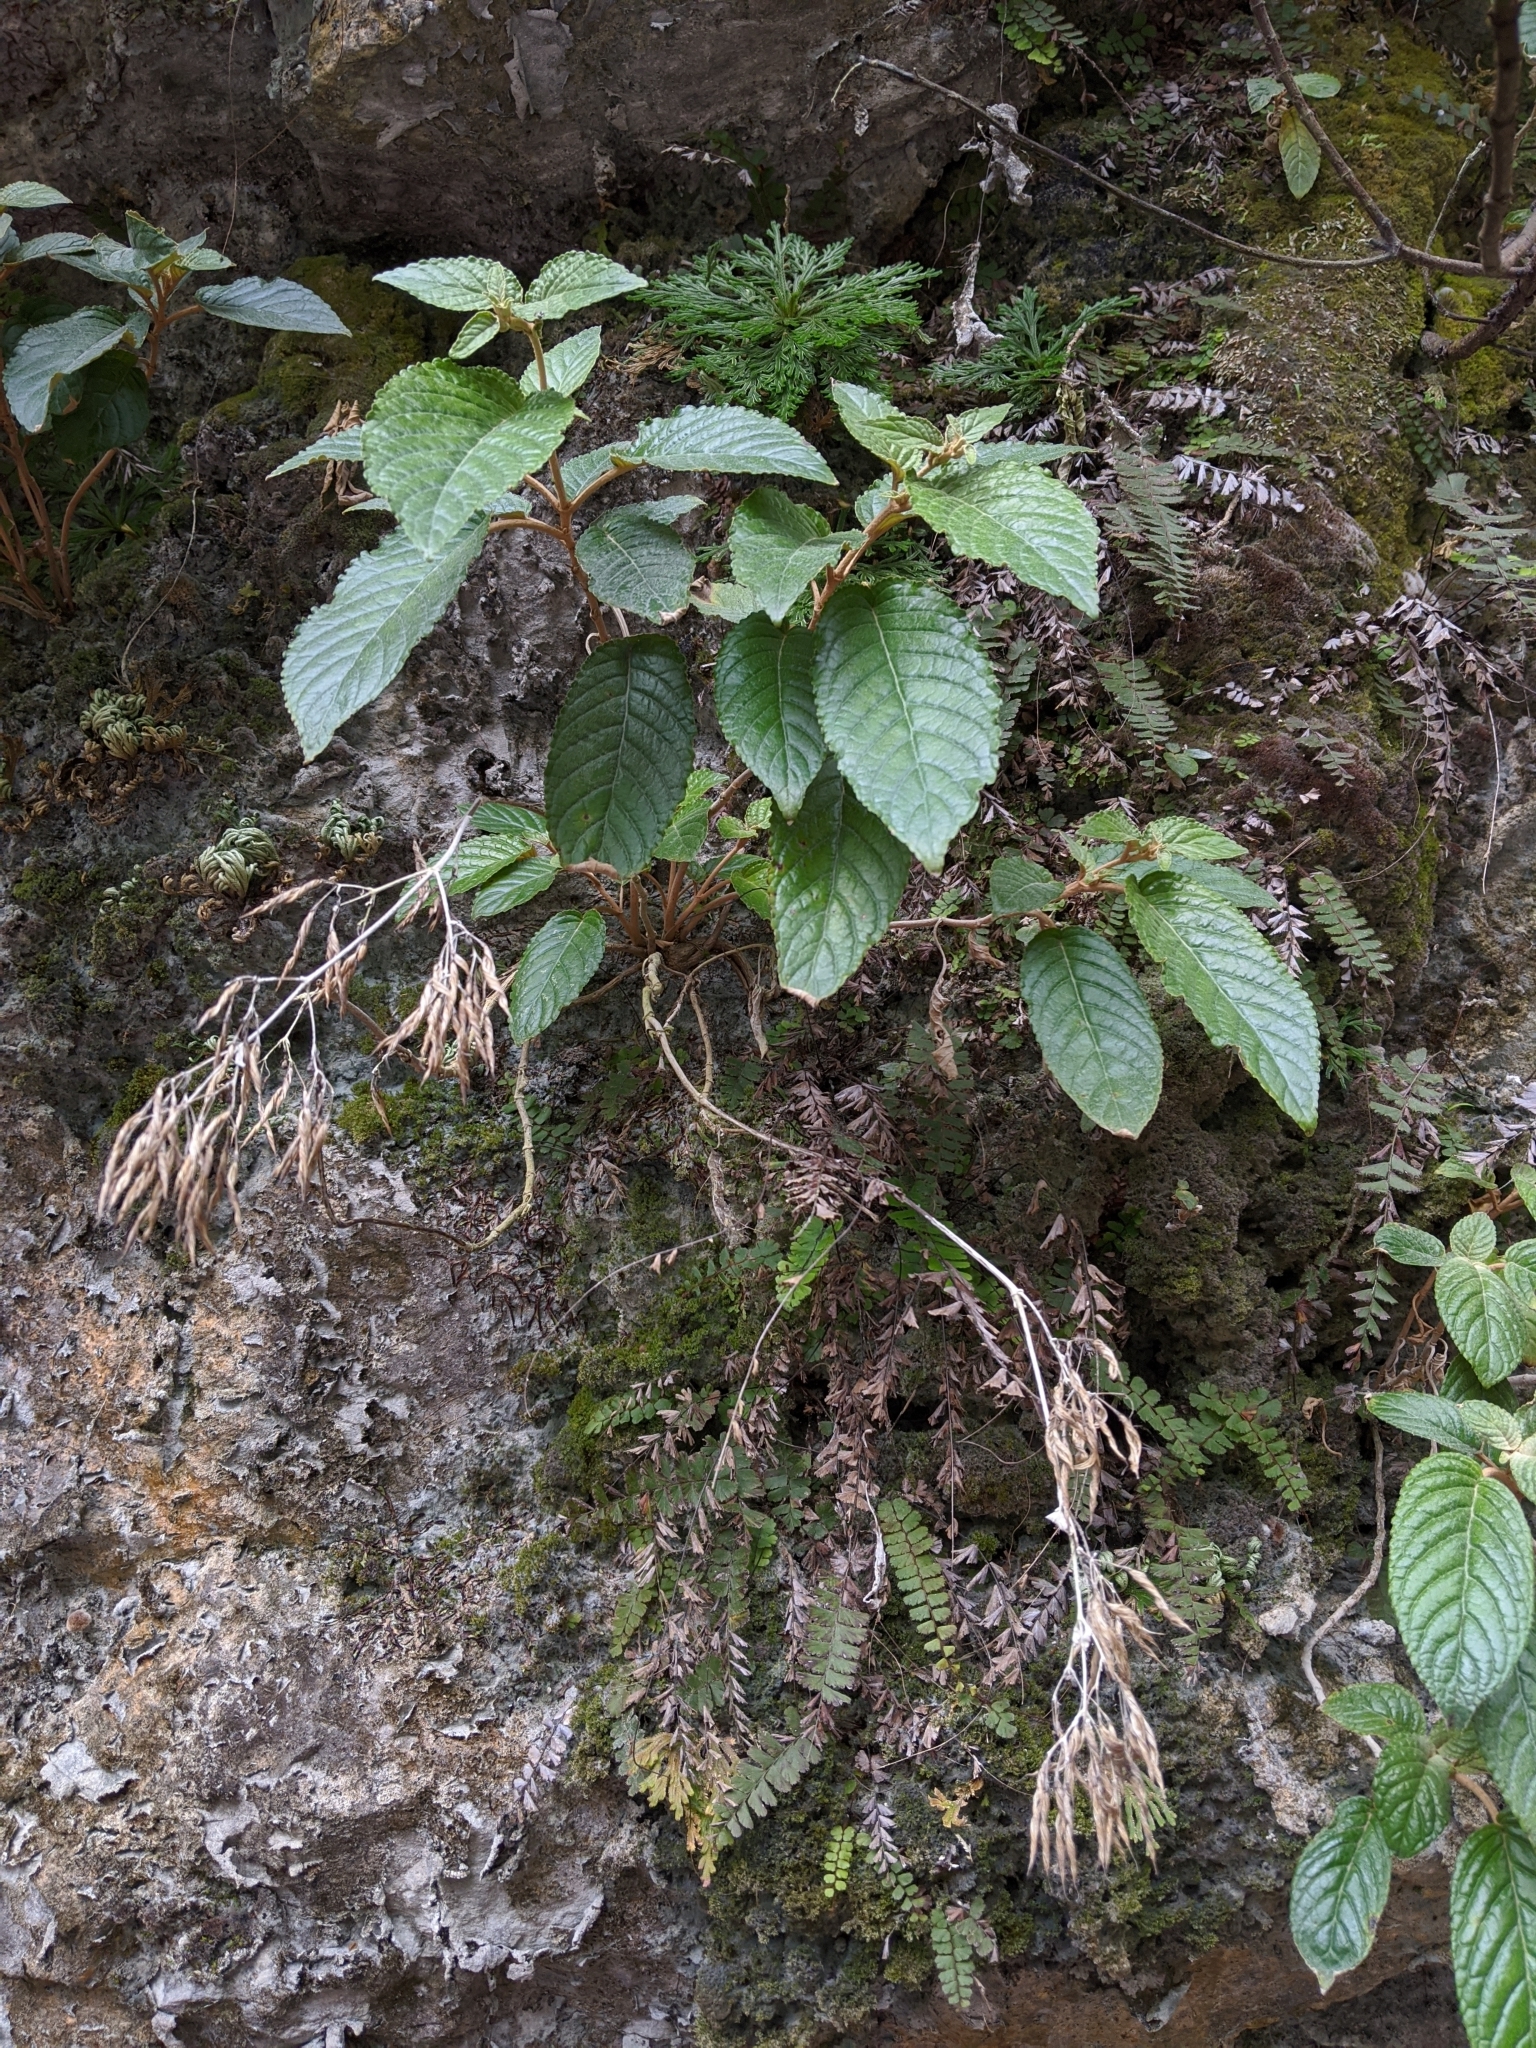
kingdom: Plantae
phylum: Tracheophyta
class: Magnoliopsida
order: Lamiales
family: Gesneriaceae
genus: Paraboea
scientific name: Paraboea swinhoei
